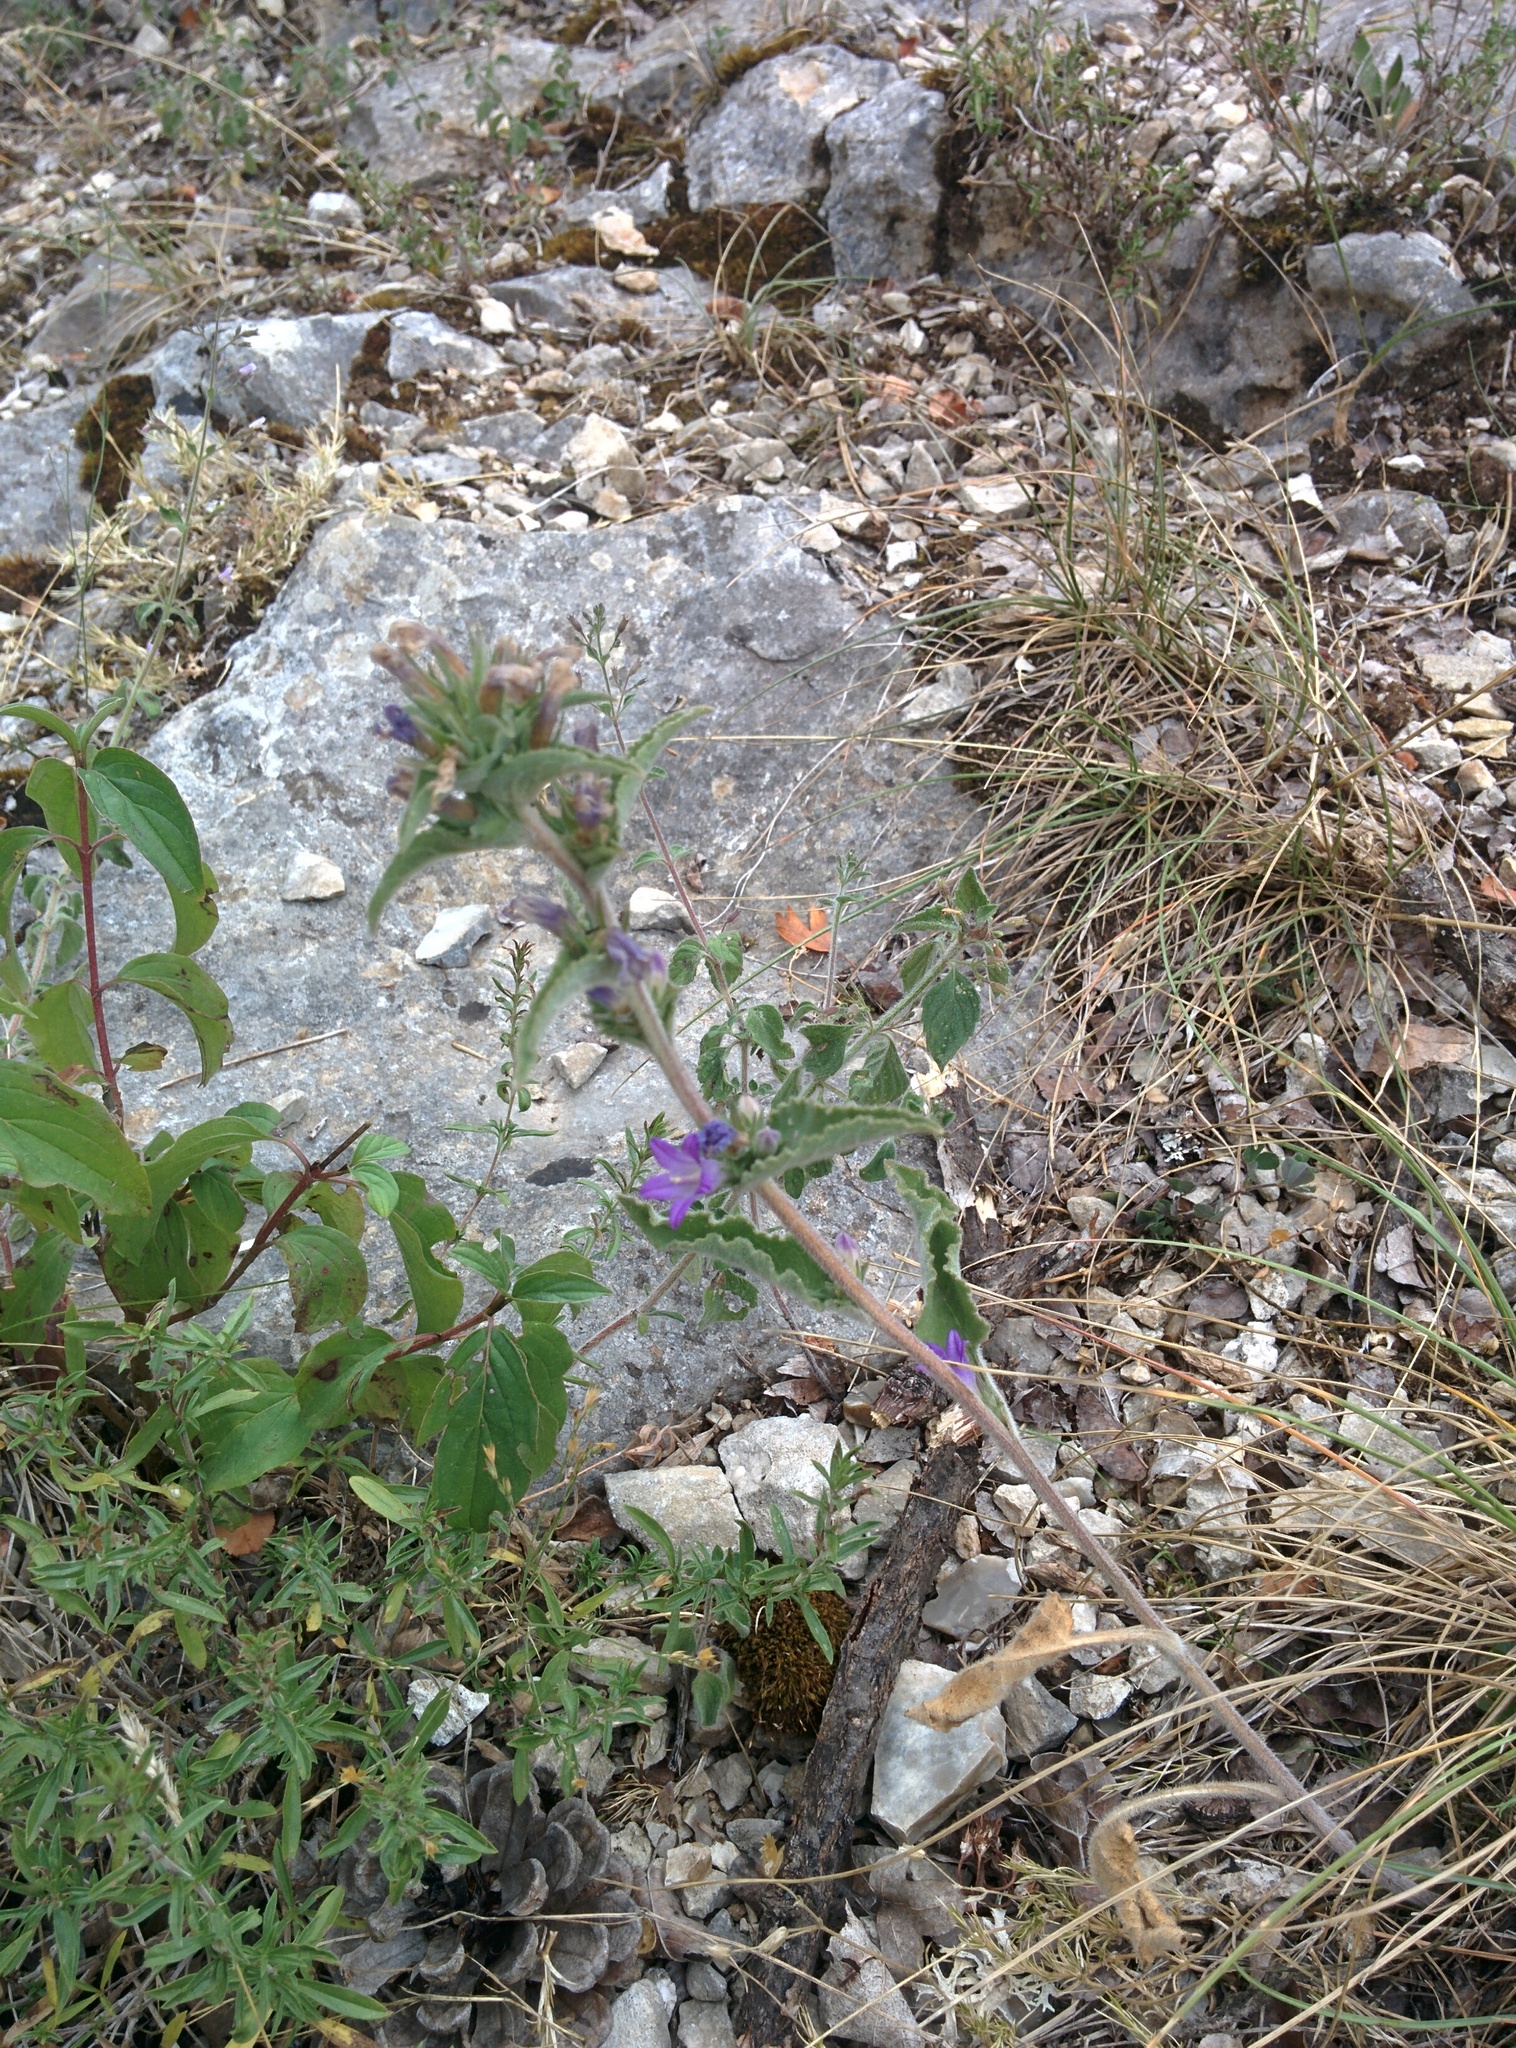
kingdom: Plantae
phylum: Tracheophyta
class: Magnoliopsida
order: Asterales
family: Campanulaceae
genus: Campanula
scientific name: Campanula glomerata
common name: Clustered bellflower
